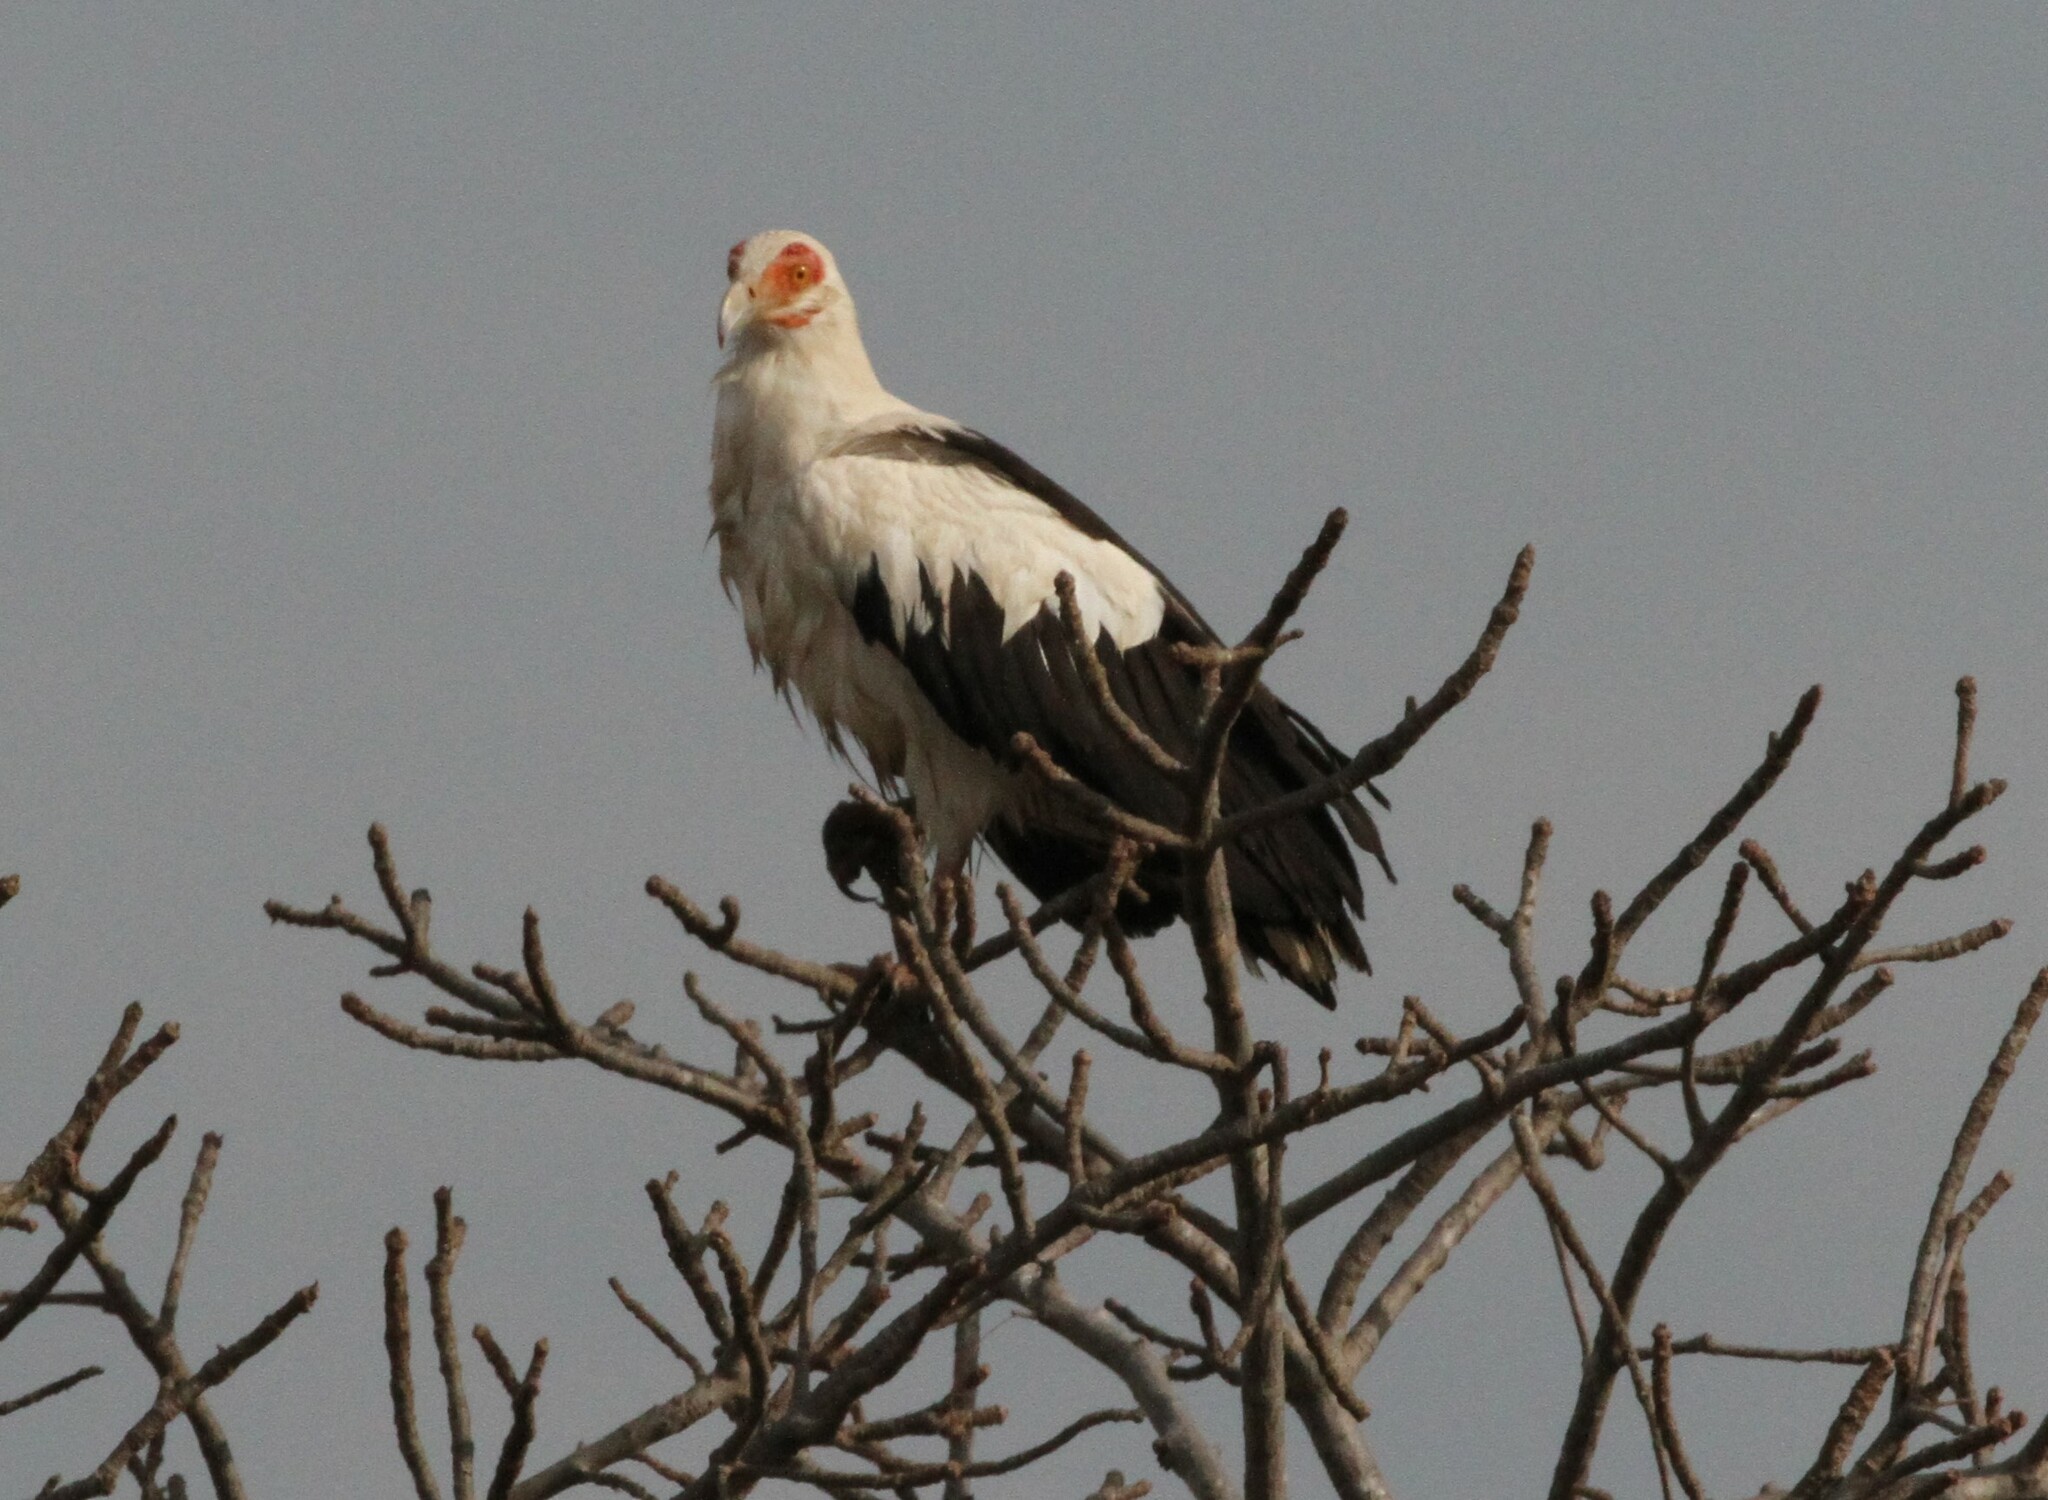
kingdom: Animalia
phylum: Chordata
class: Aves
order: Accipitriformes
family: Accipitridae
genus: Gypohierax
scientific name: Gypohierax angolensis
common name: Palm-nut vulture
